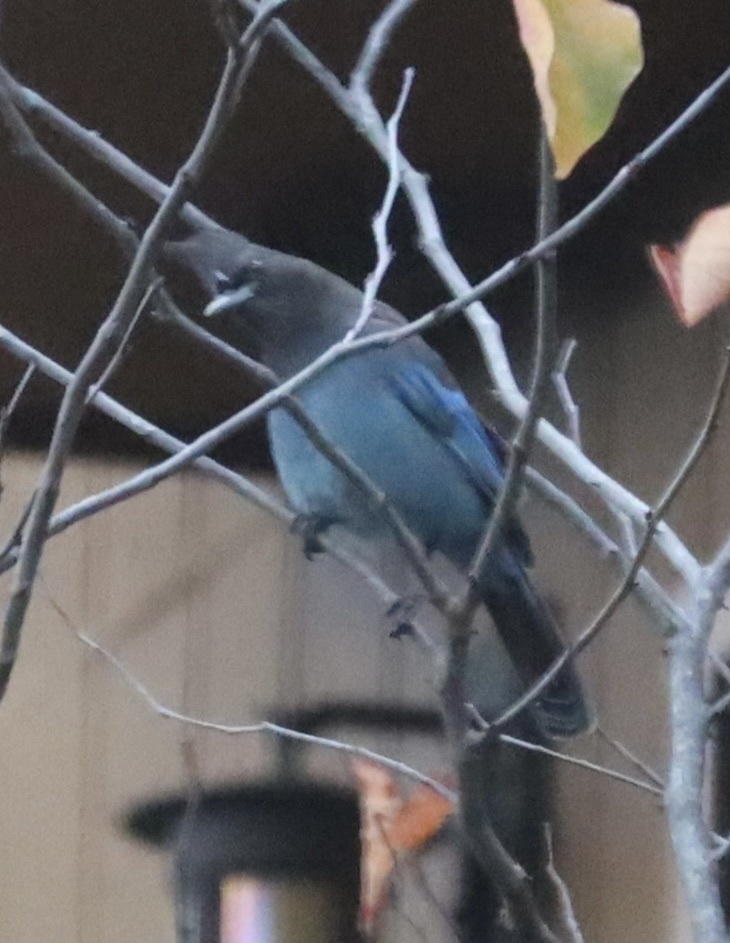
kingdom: Animalia
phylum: Chordata
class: Aves
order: Passeriformes
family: Corvidae
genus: Cyanocitta
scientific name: Cyanocitta stelleri
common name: Steller's jay
